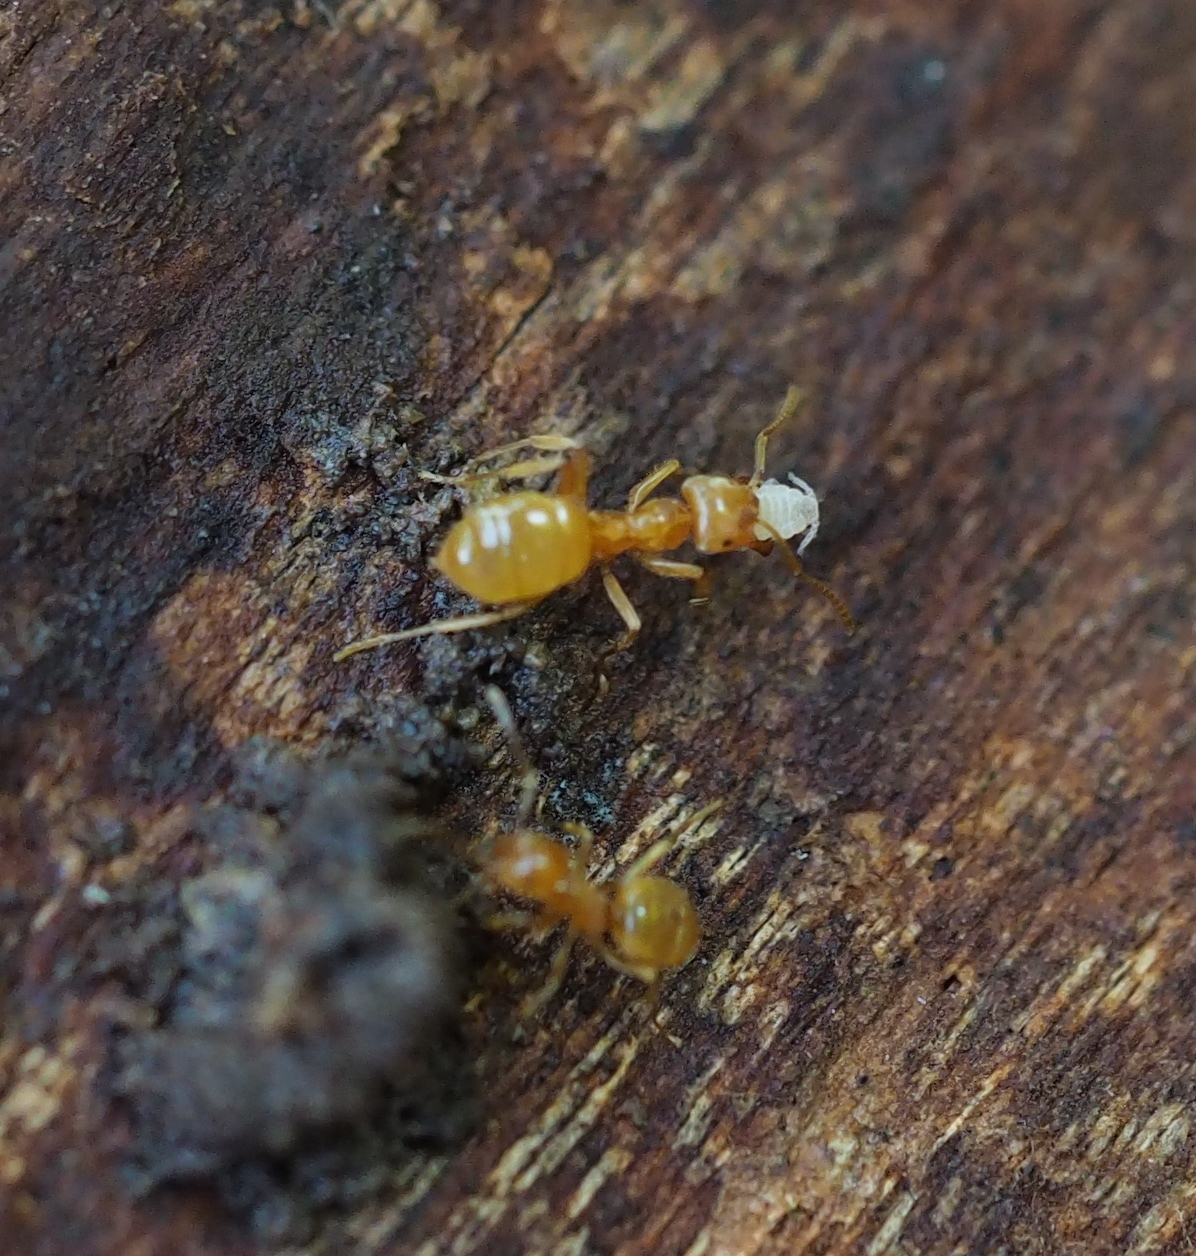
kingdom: Animalia
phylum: Arthropoda
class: Insecta
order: Hymenoptera
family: Formicidae
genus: Lasius
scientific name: Lasius flavus
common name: Blond field ant
